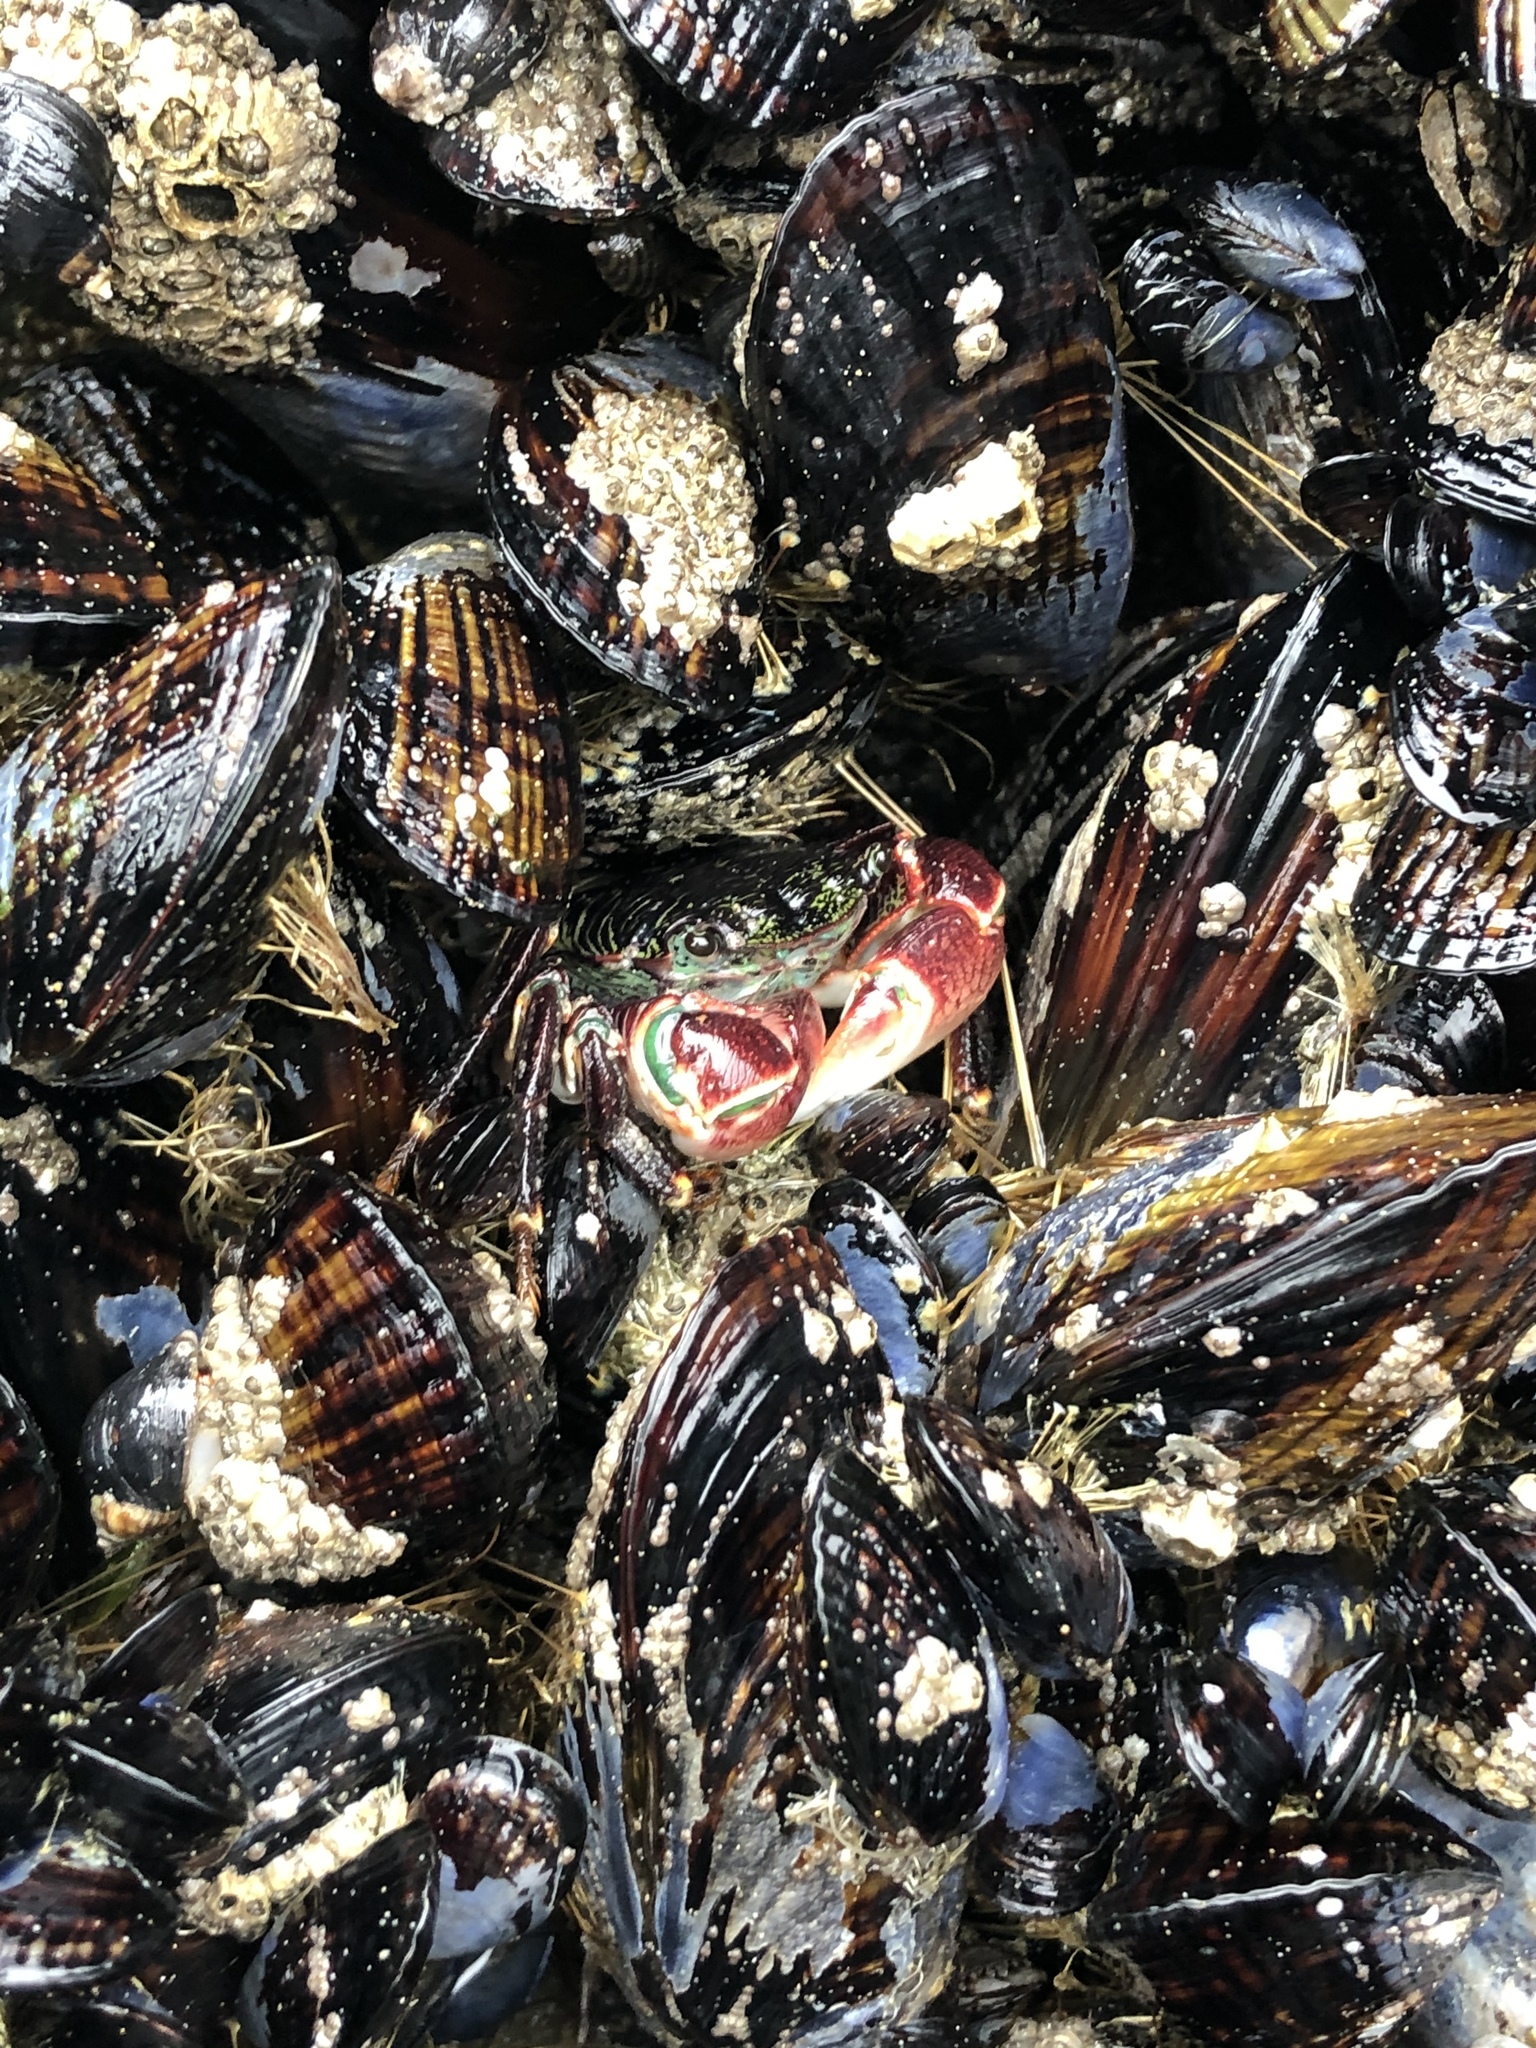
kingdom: Animalia
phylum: Arthropoda
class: Malacostraca
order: Decapoda
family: Grapsidae
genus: Pachygrapsus
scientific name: Pachygrapsus crassipes
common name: Striped shore crab
